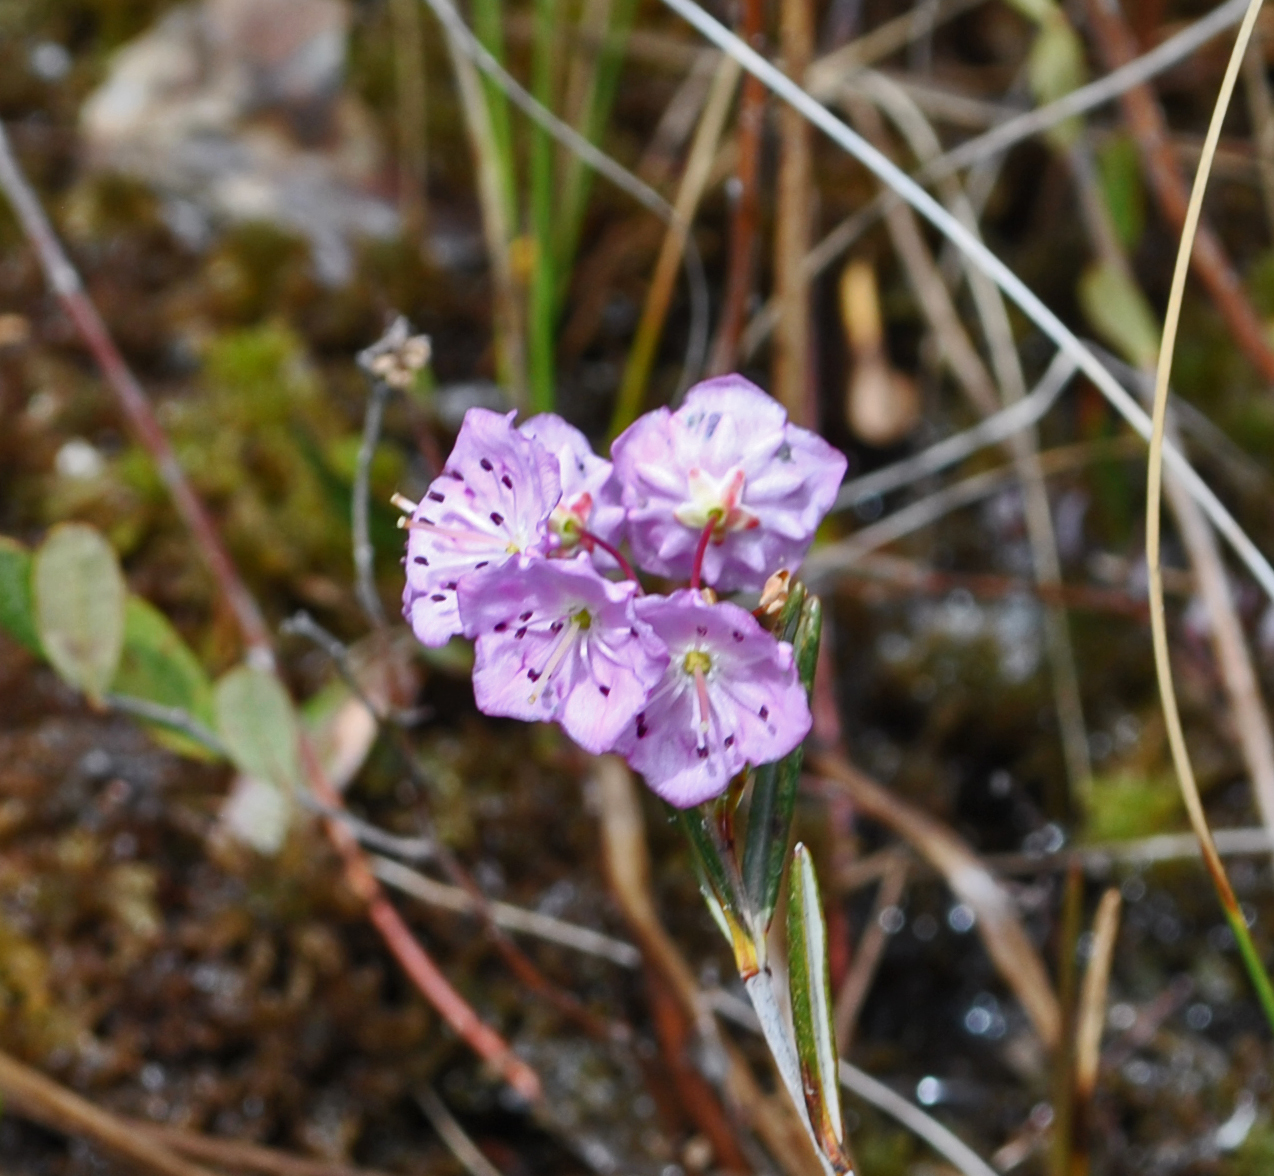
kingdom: Plantae
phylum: Tracheophyta
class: Magnoliopsida
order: Ericales
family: Ericaceae
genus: Kalmia
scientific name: Kalmia polifolia
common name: Bog-laurel
